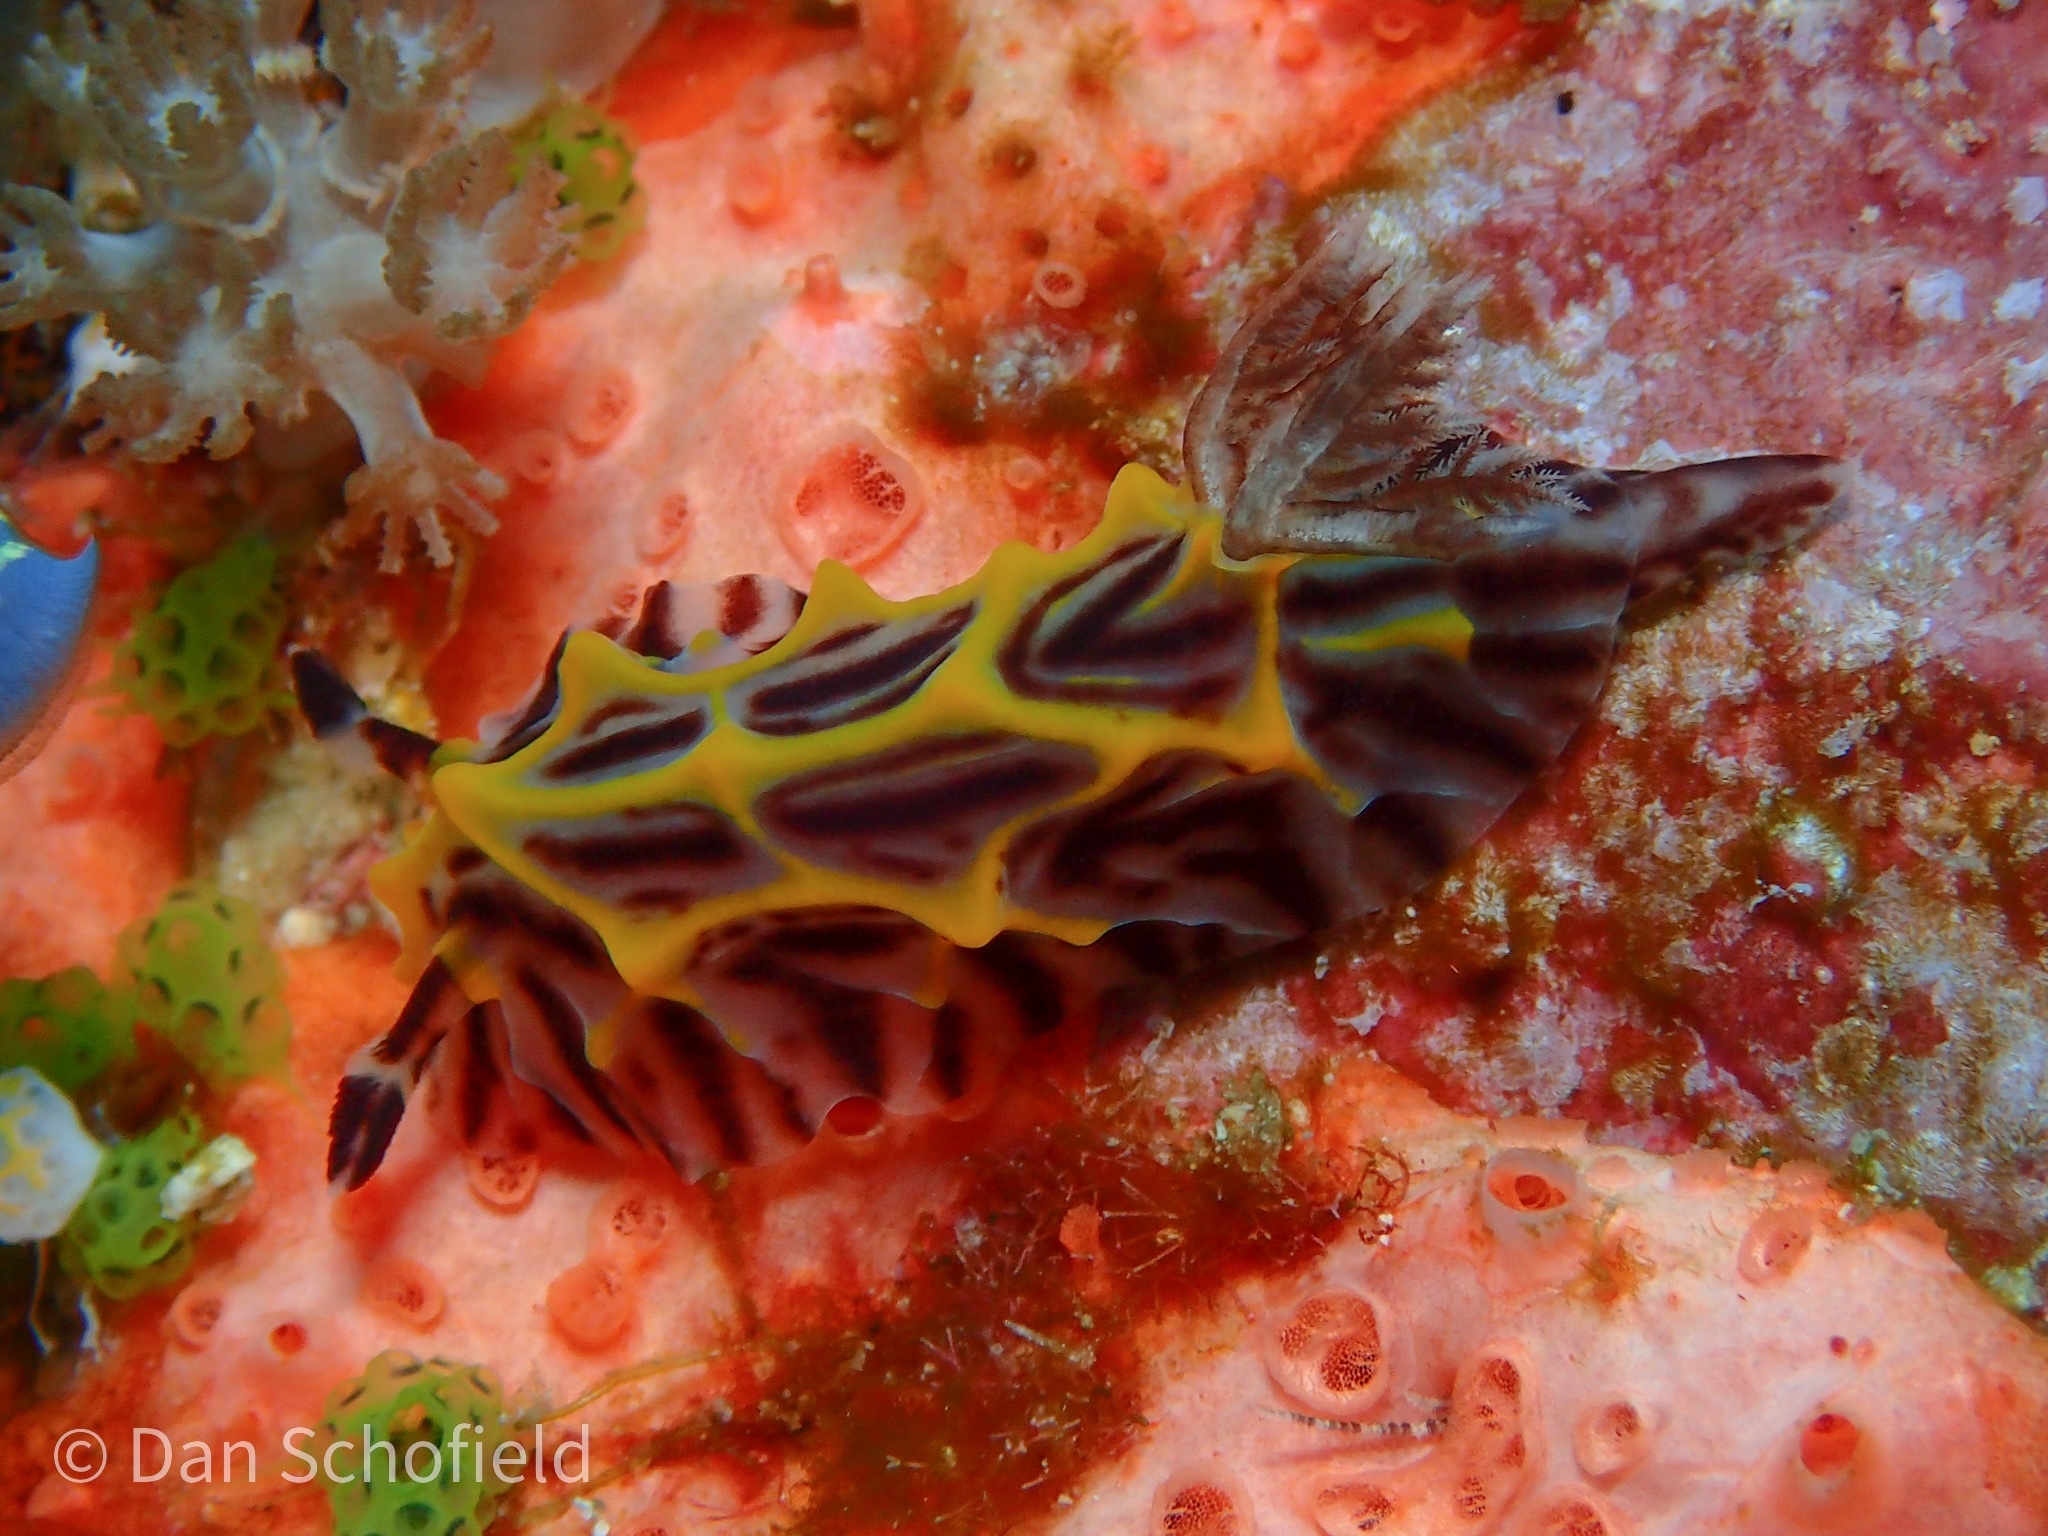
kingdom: Animalia
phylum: Mollusca
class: Gastropoda
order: Nudibranchia
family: Discodorididae
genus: Halgerda
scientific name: Halgerda willeyi
